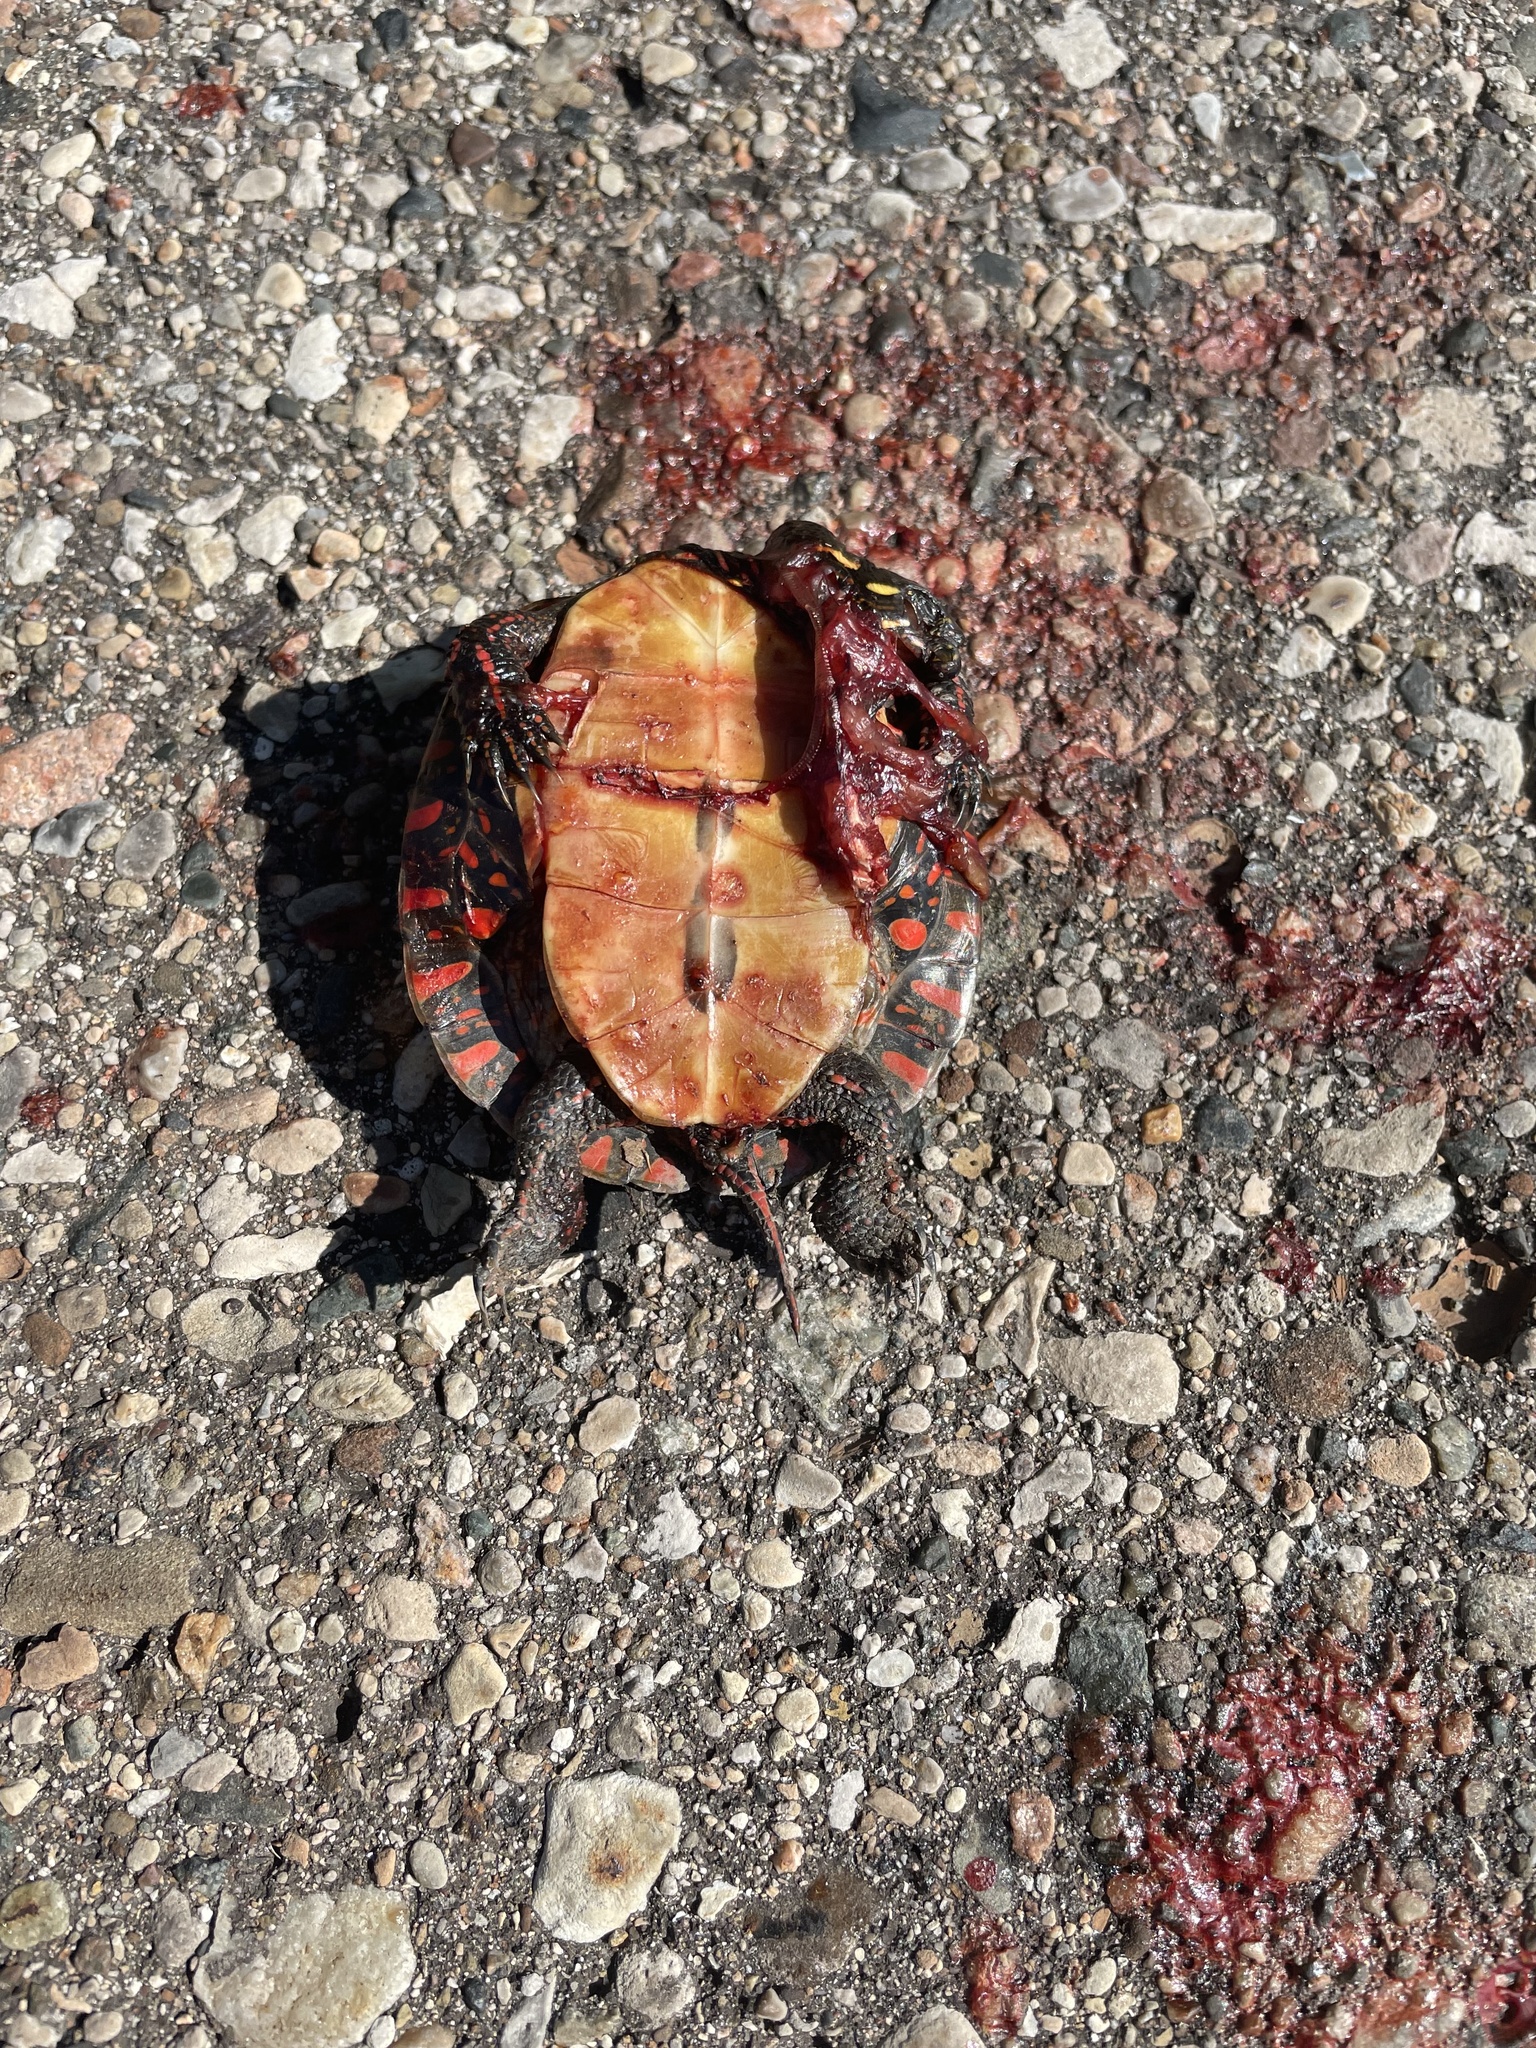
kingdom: Animalia
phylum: Chordata
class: Testudines
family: Emydidae
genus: Chrysemys
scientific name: Chrysemys picta
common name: Painted turtle
